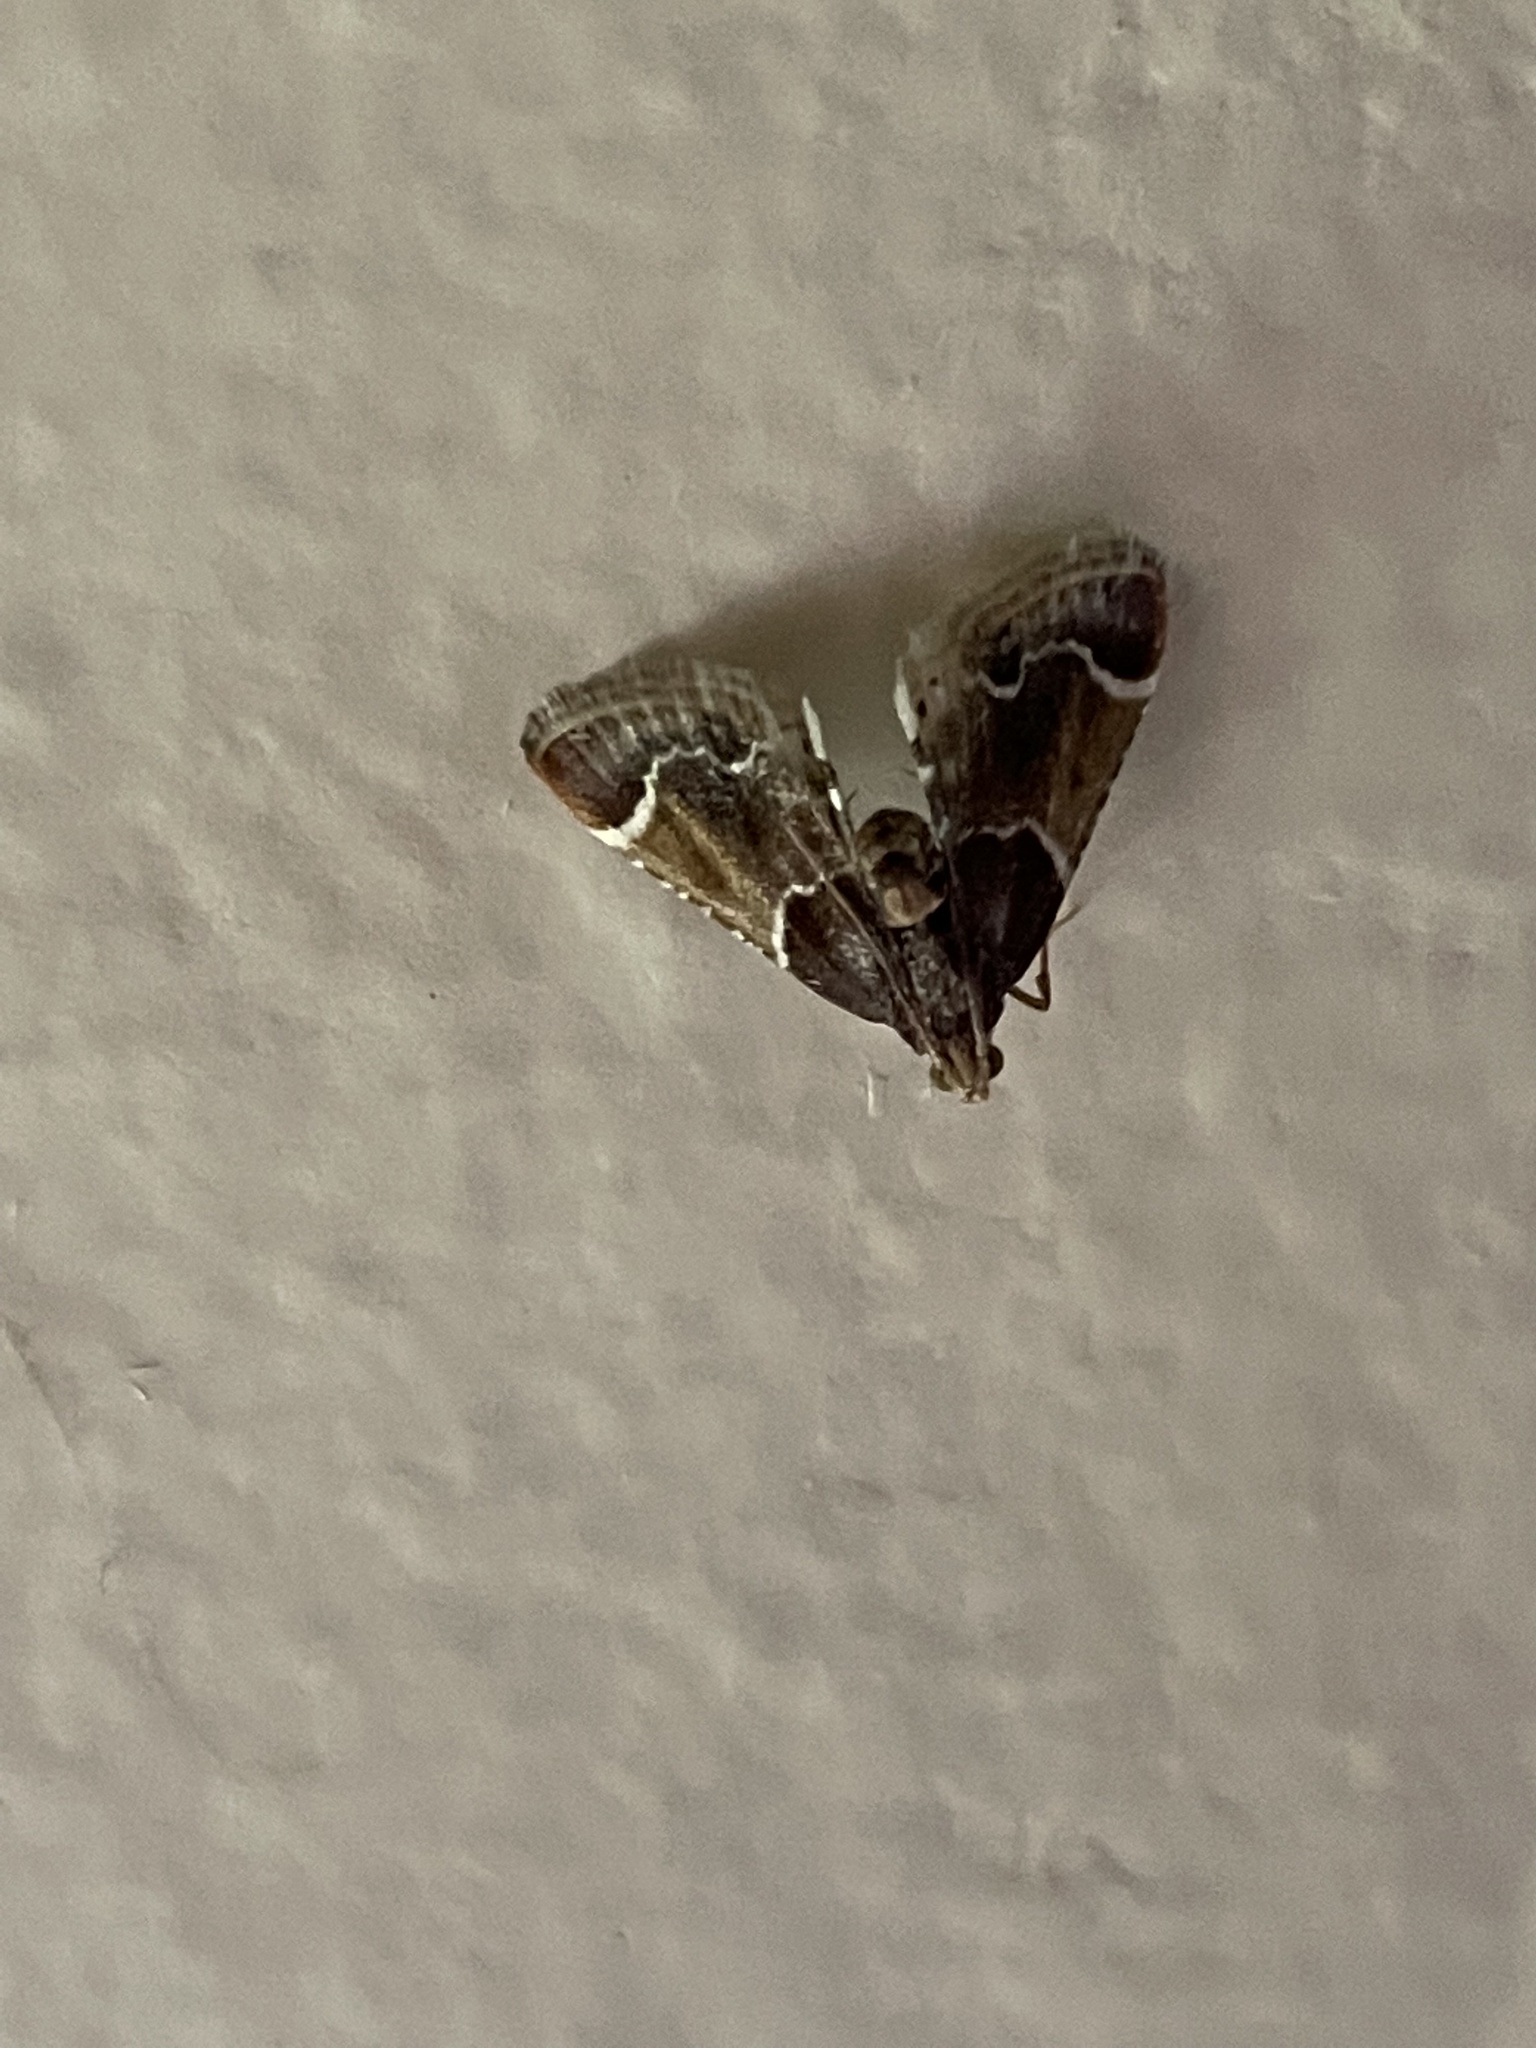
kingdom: Animalia
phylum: Arthropoda
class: Insecta
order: Lepidoptera
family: Pyralidae
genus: Pyralis
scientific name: Pyralis farinalis
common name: Meal moth
